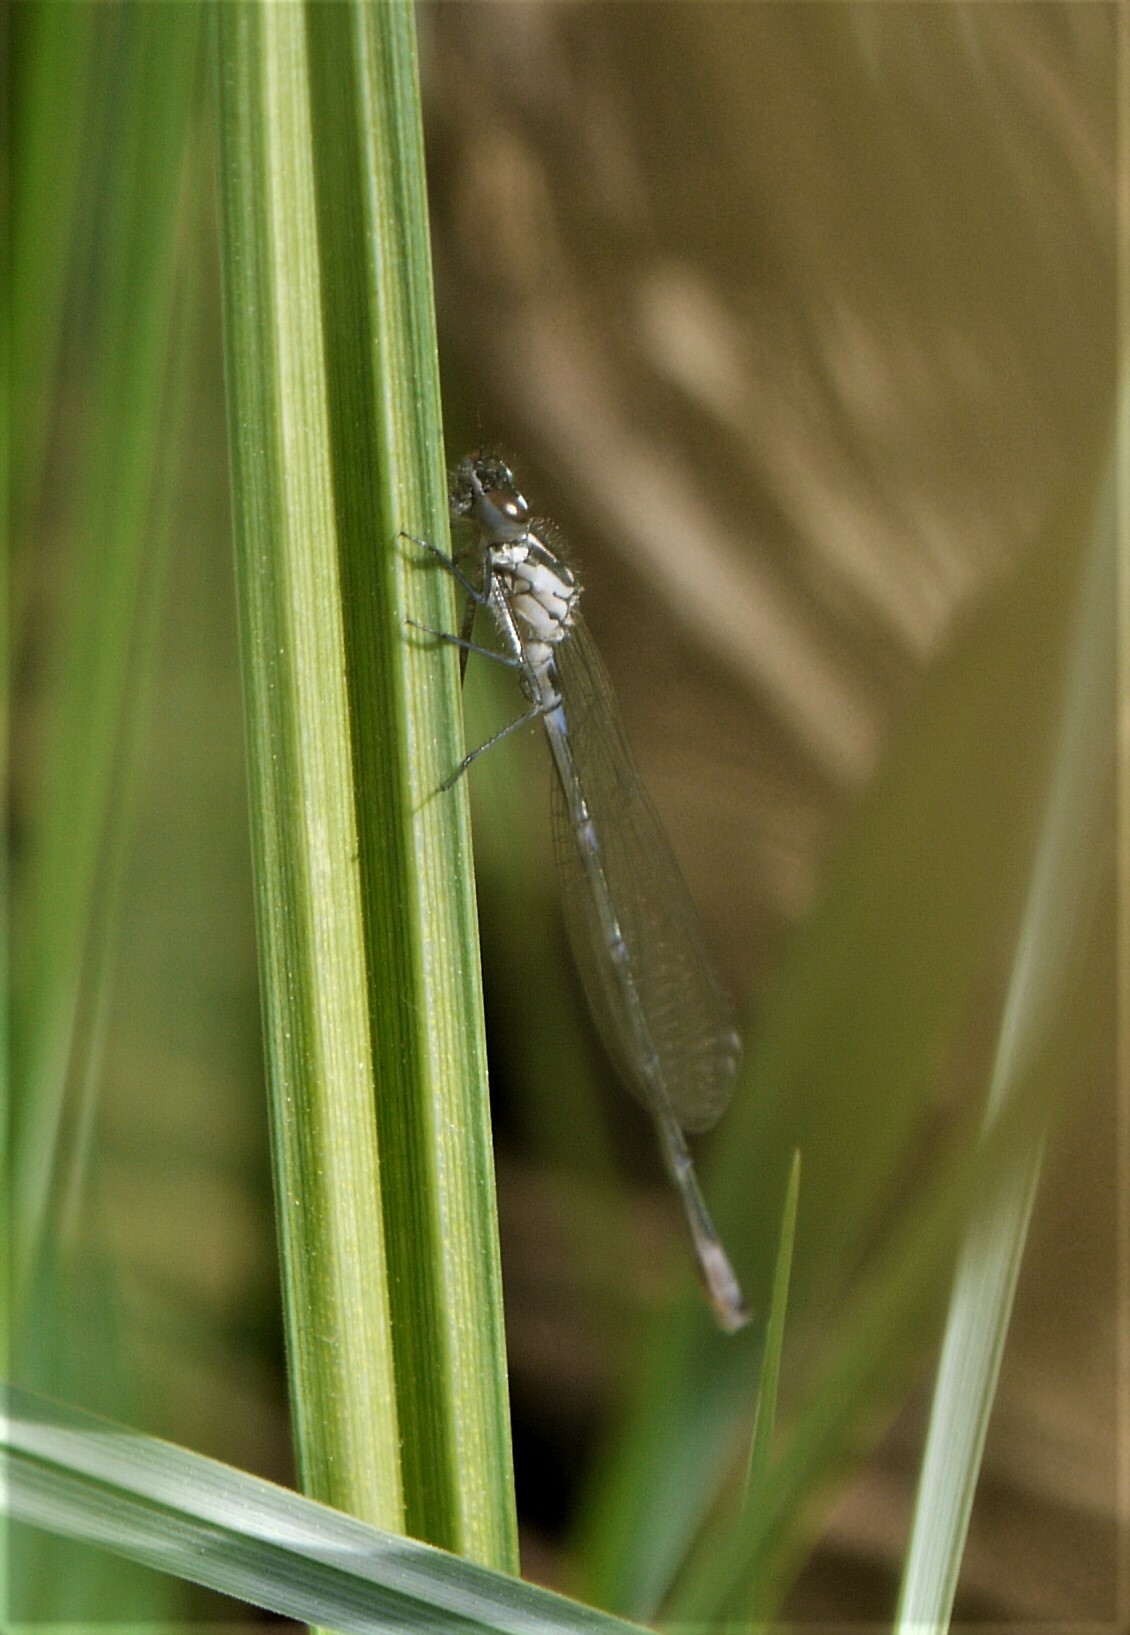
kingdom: Animalia
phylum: Arthropoda
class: Insecta
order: Odonata
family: Coenagrionidae
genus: Coenagrion
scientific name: Coenagrion pulchellum
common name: Variable bluet
